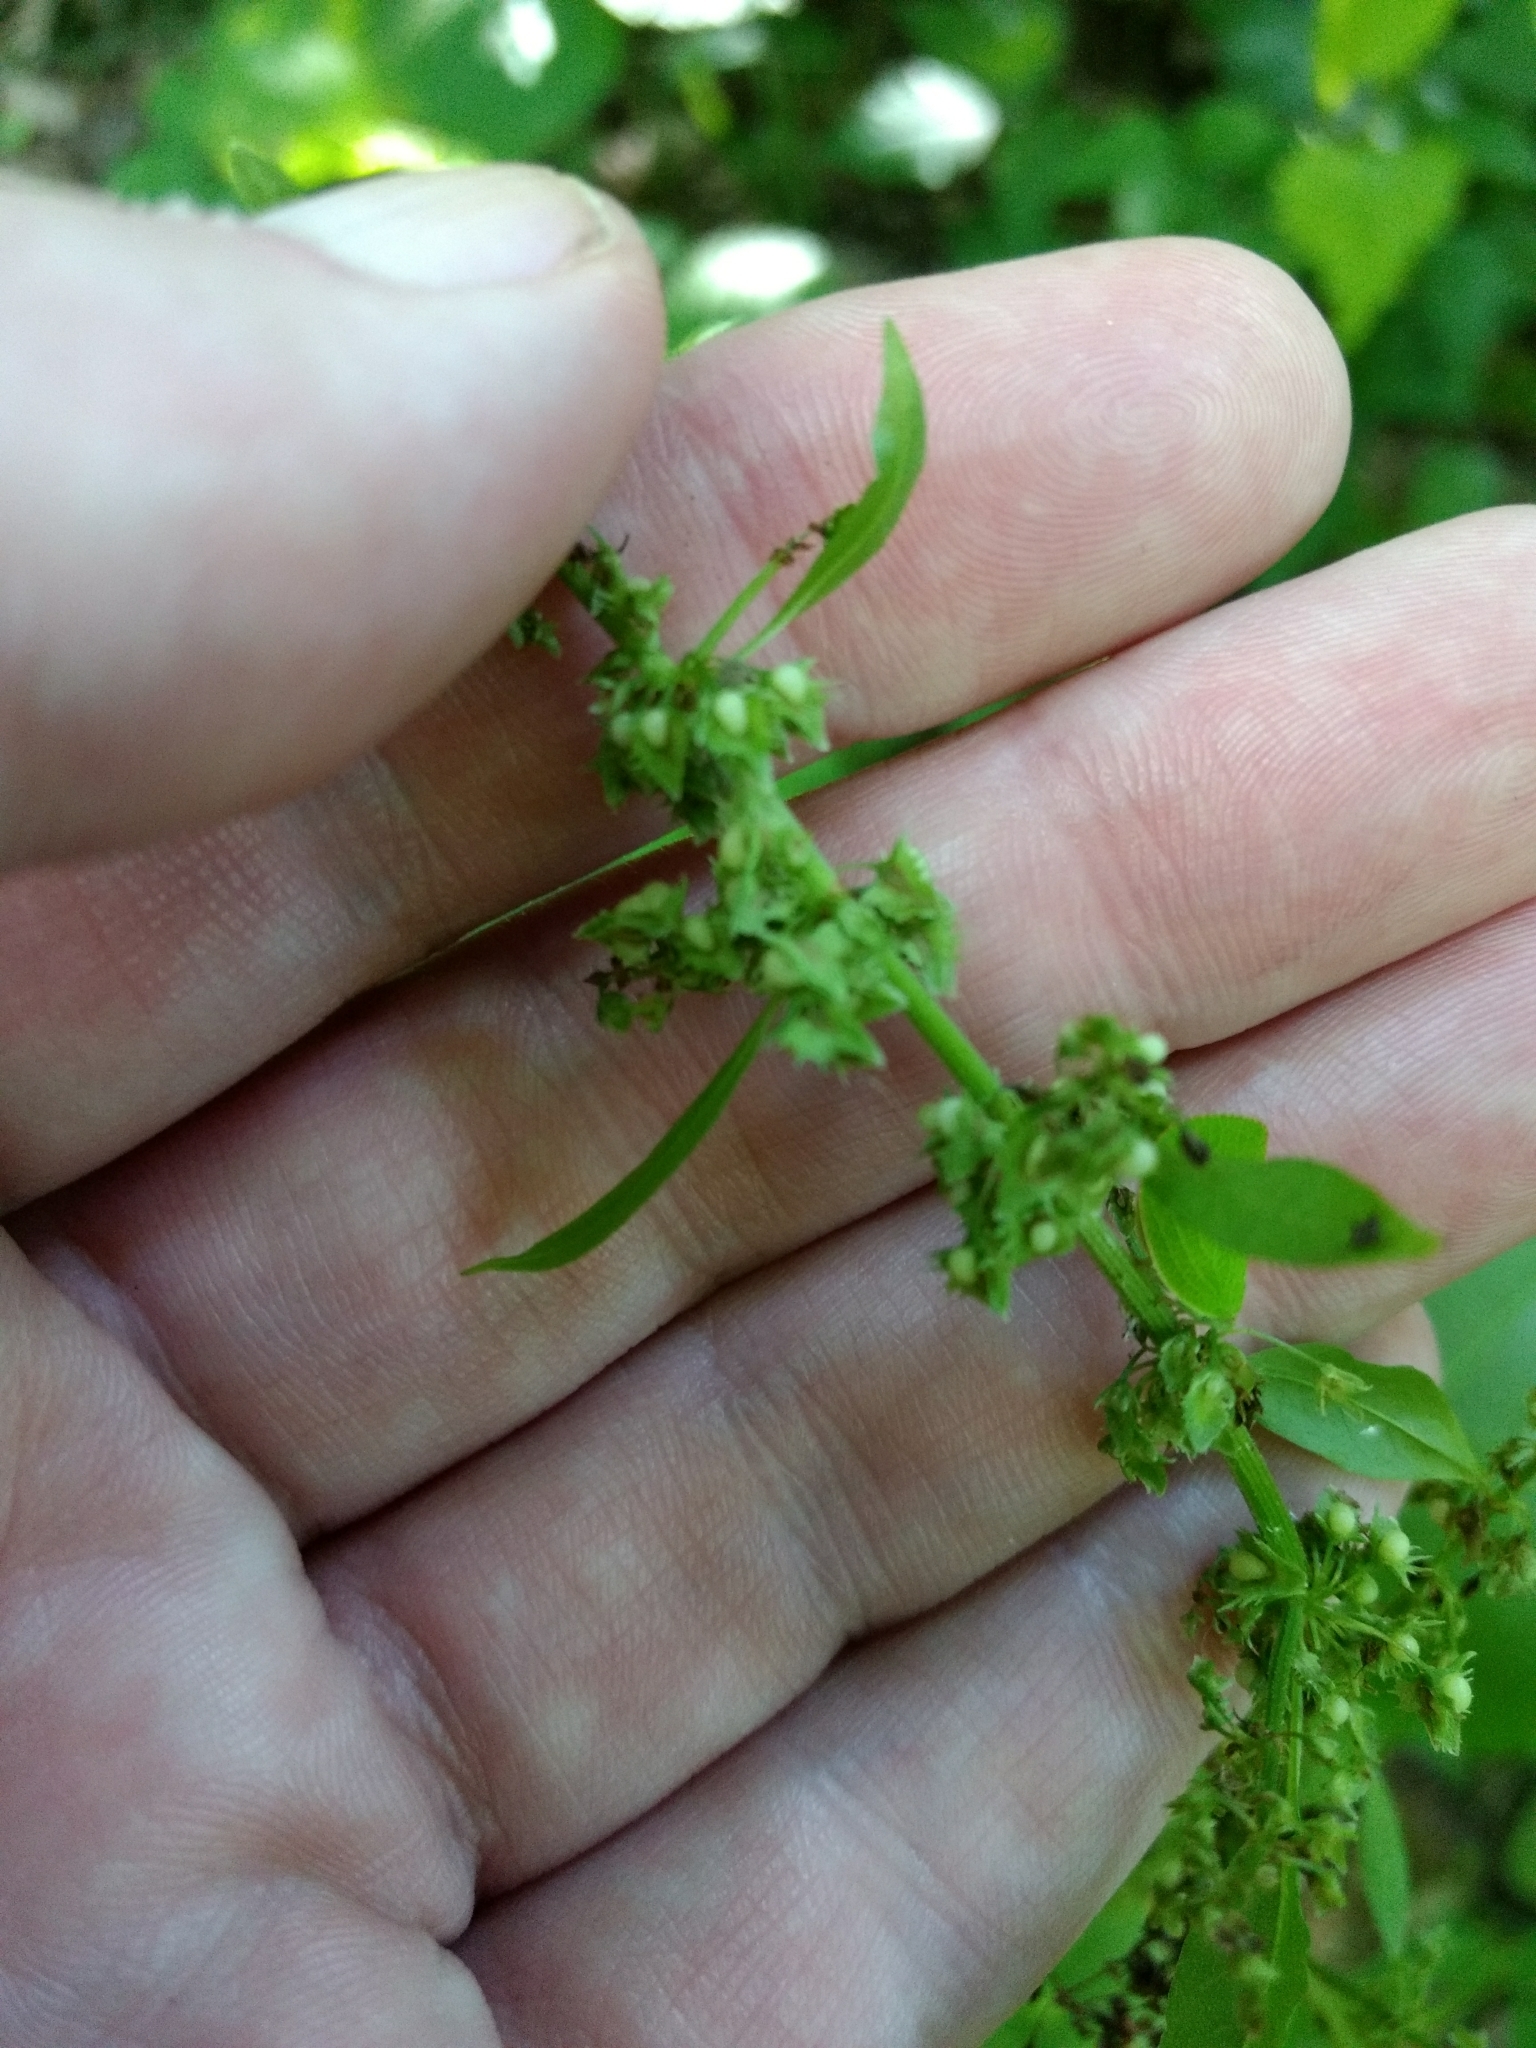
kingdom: Plantae
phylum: Tracheophyta
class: Magnoliopsida
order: Caryophyllales
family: Polygonaceae
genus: Rumex
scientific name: Rumex obtusifolius
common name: Bitter dock
